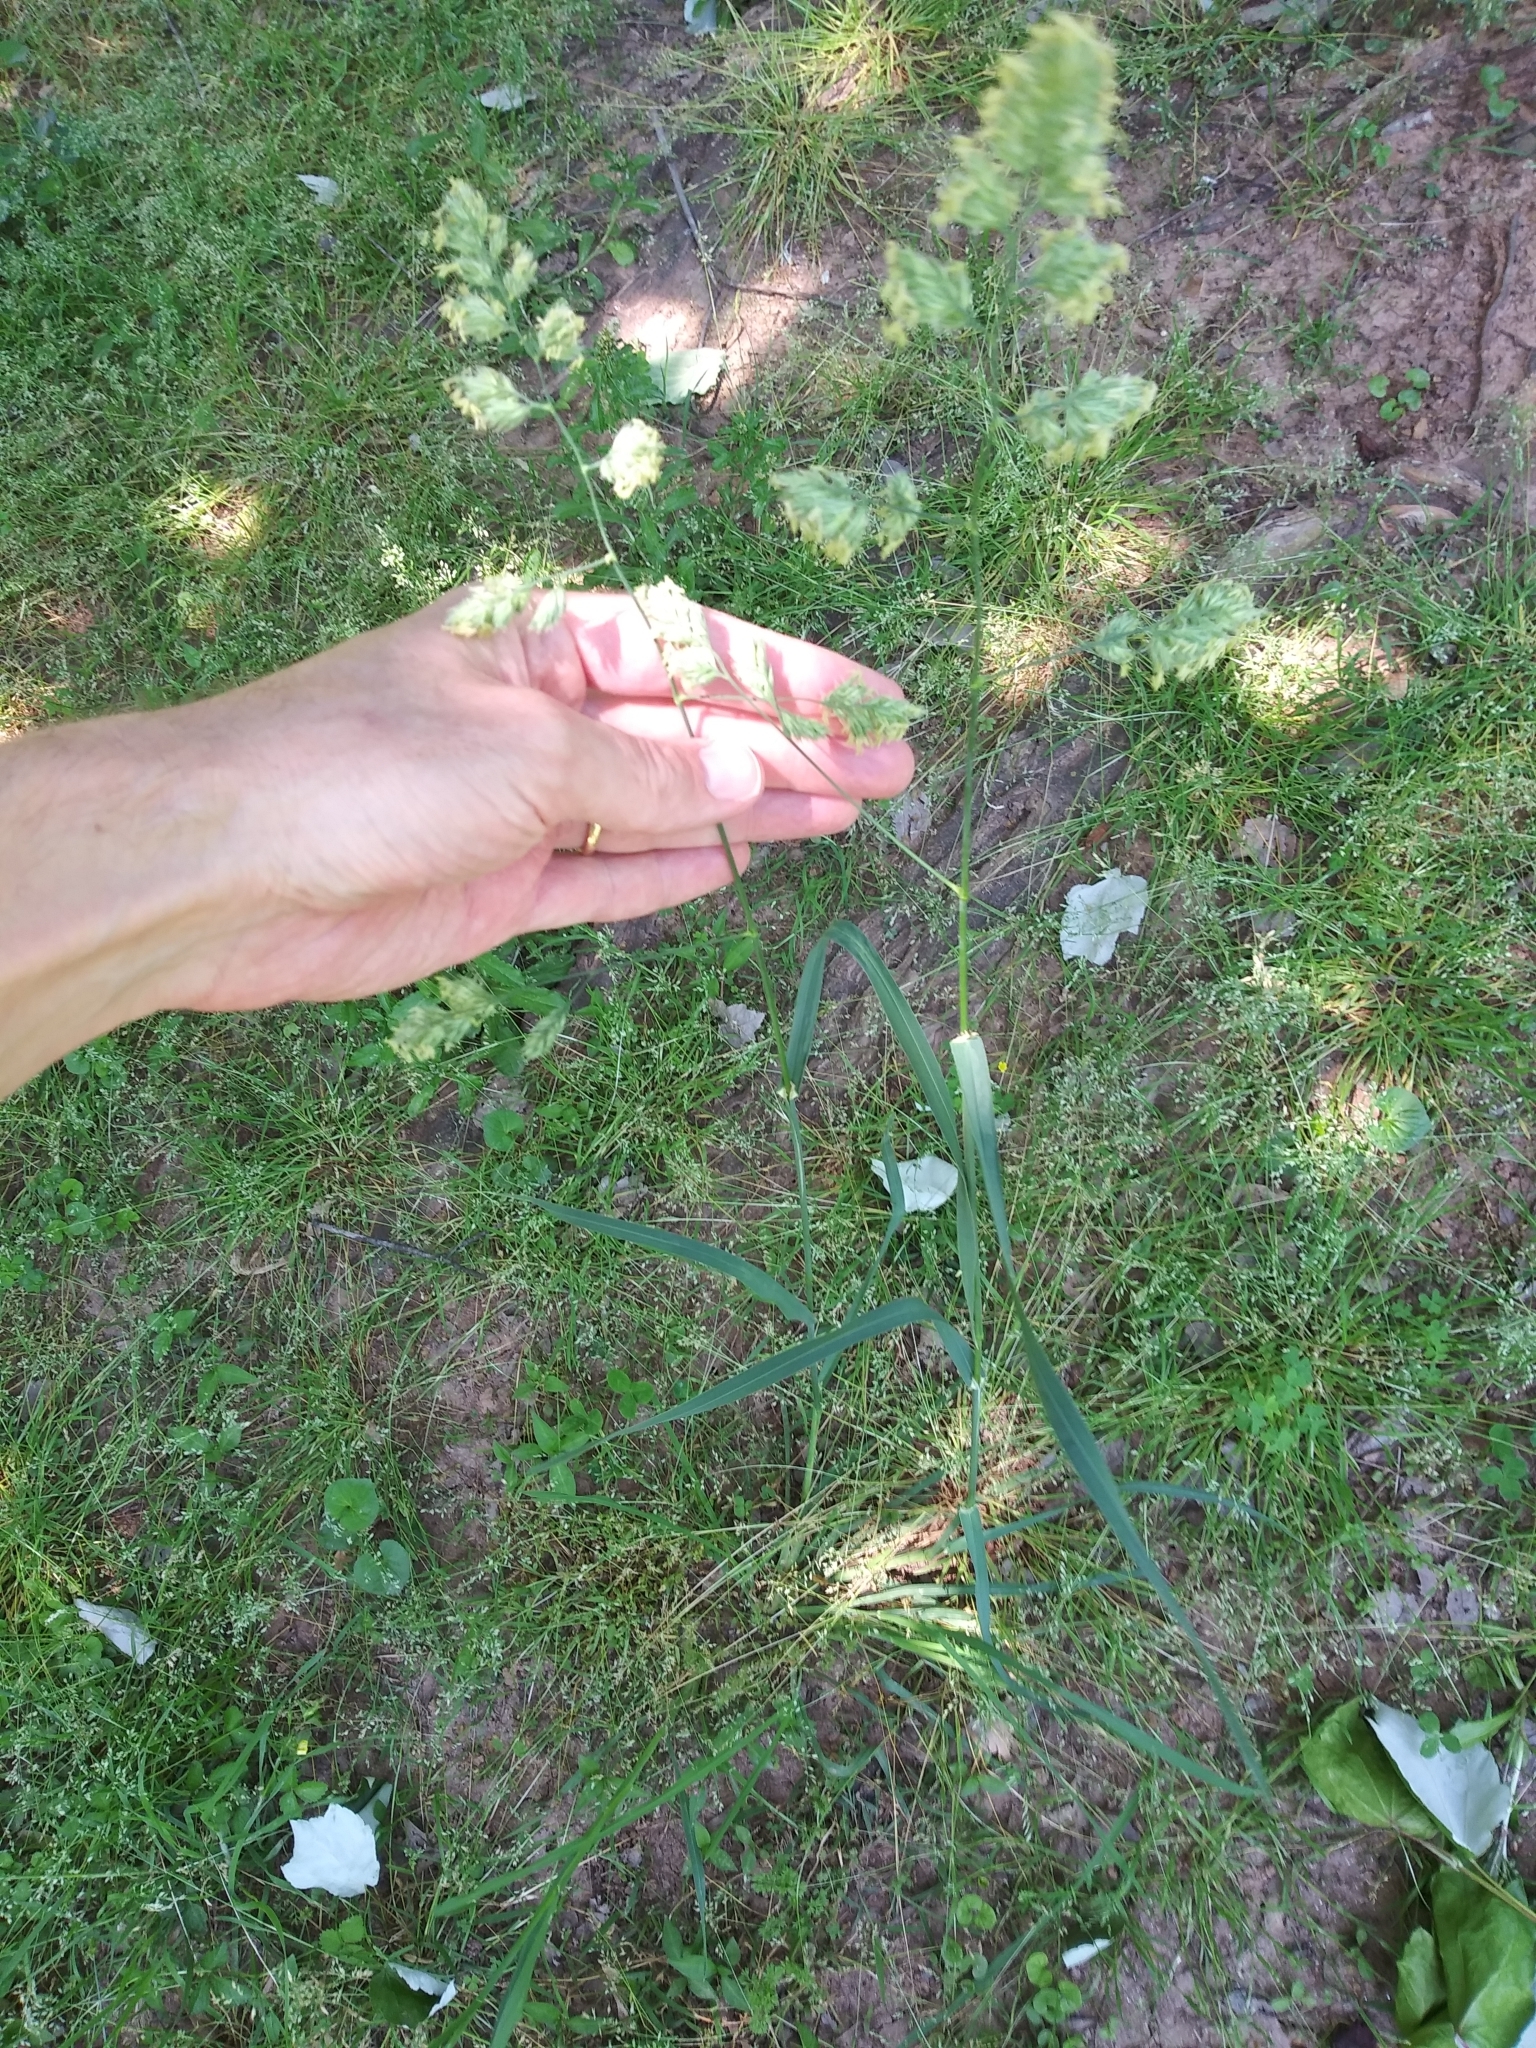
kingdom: Plantae
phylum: Tracheophyta
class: Liliopsida
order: Poales
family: Poaceae
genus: Dactylis
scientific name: Dactylis glomerata
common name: Orchardgrass
